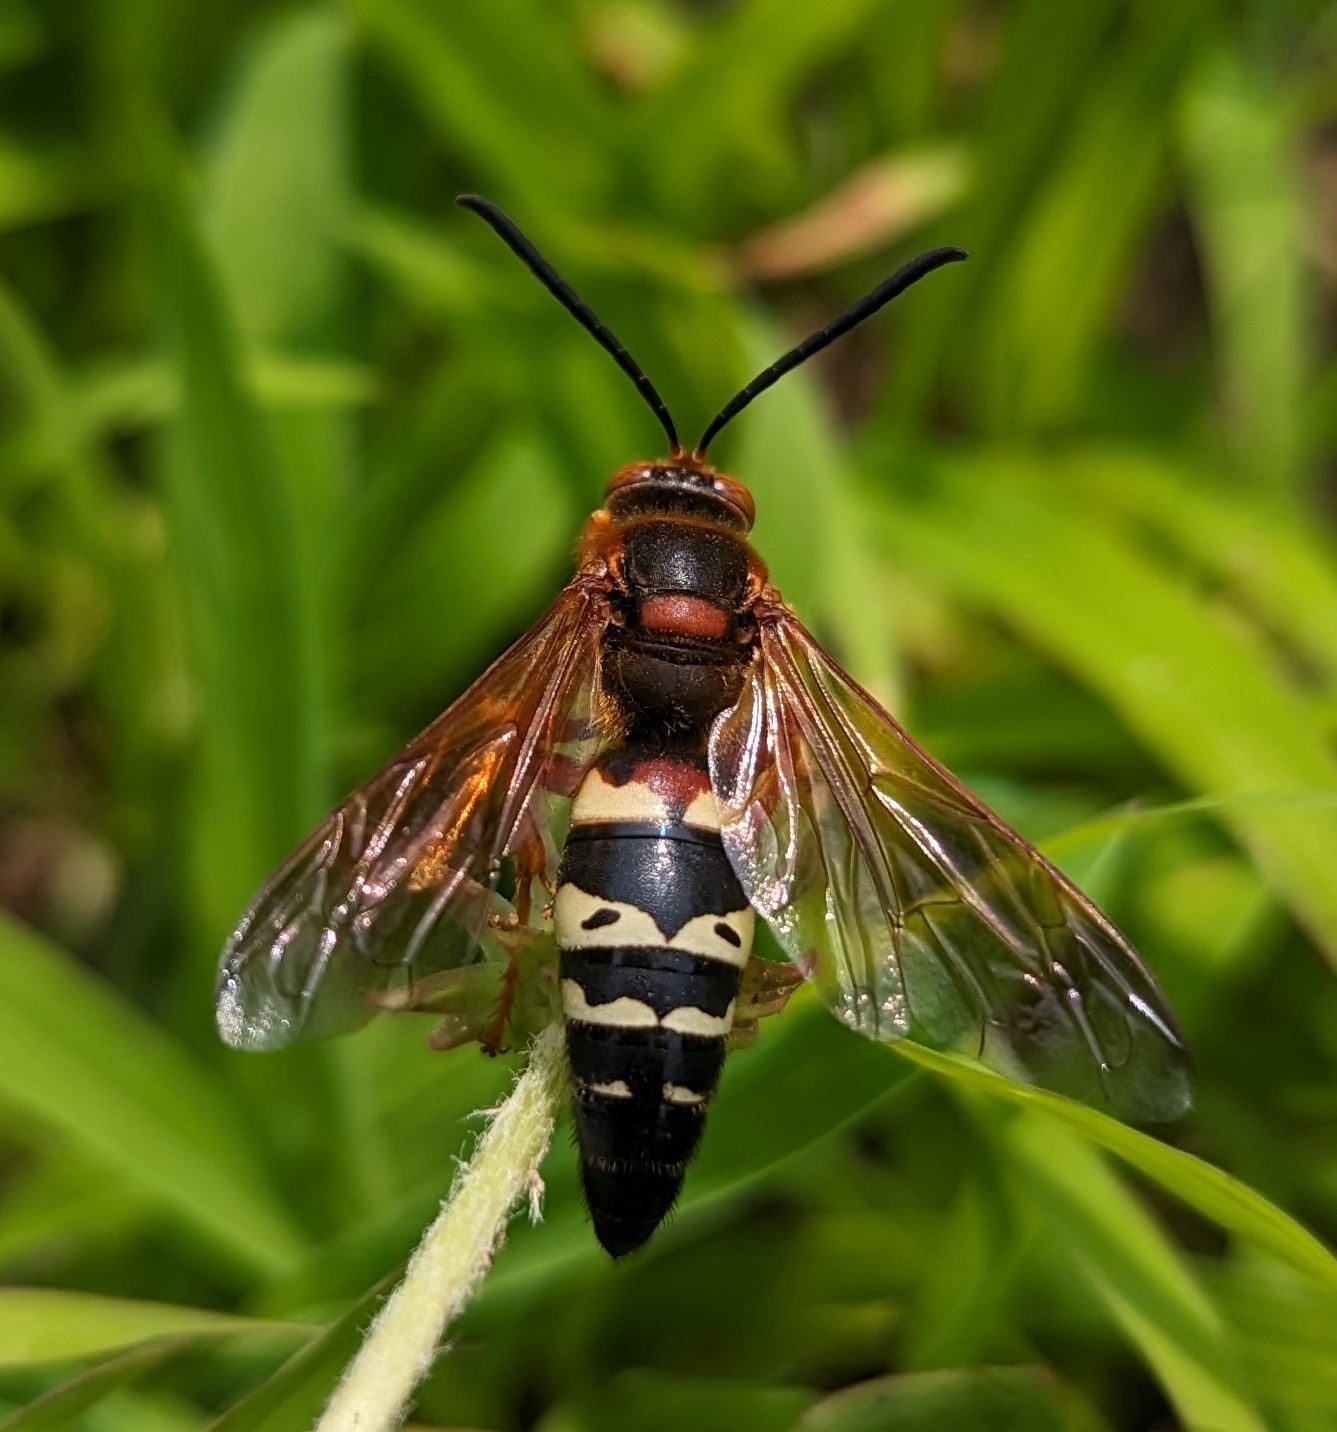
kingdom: Animalia
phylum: Arthropoda
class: Insecta
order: Hymenoptera
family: Crabronidae
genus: Sphecius
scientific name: Sphecius speciosus
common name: Cicada killer
